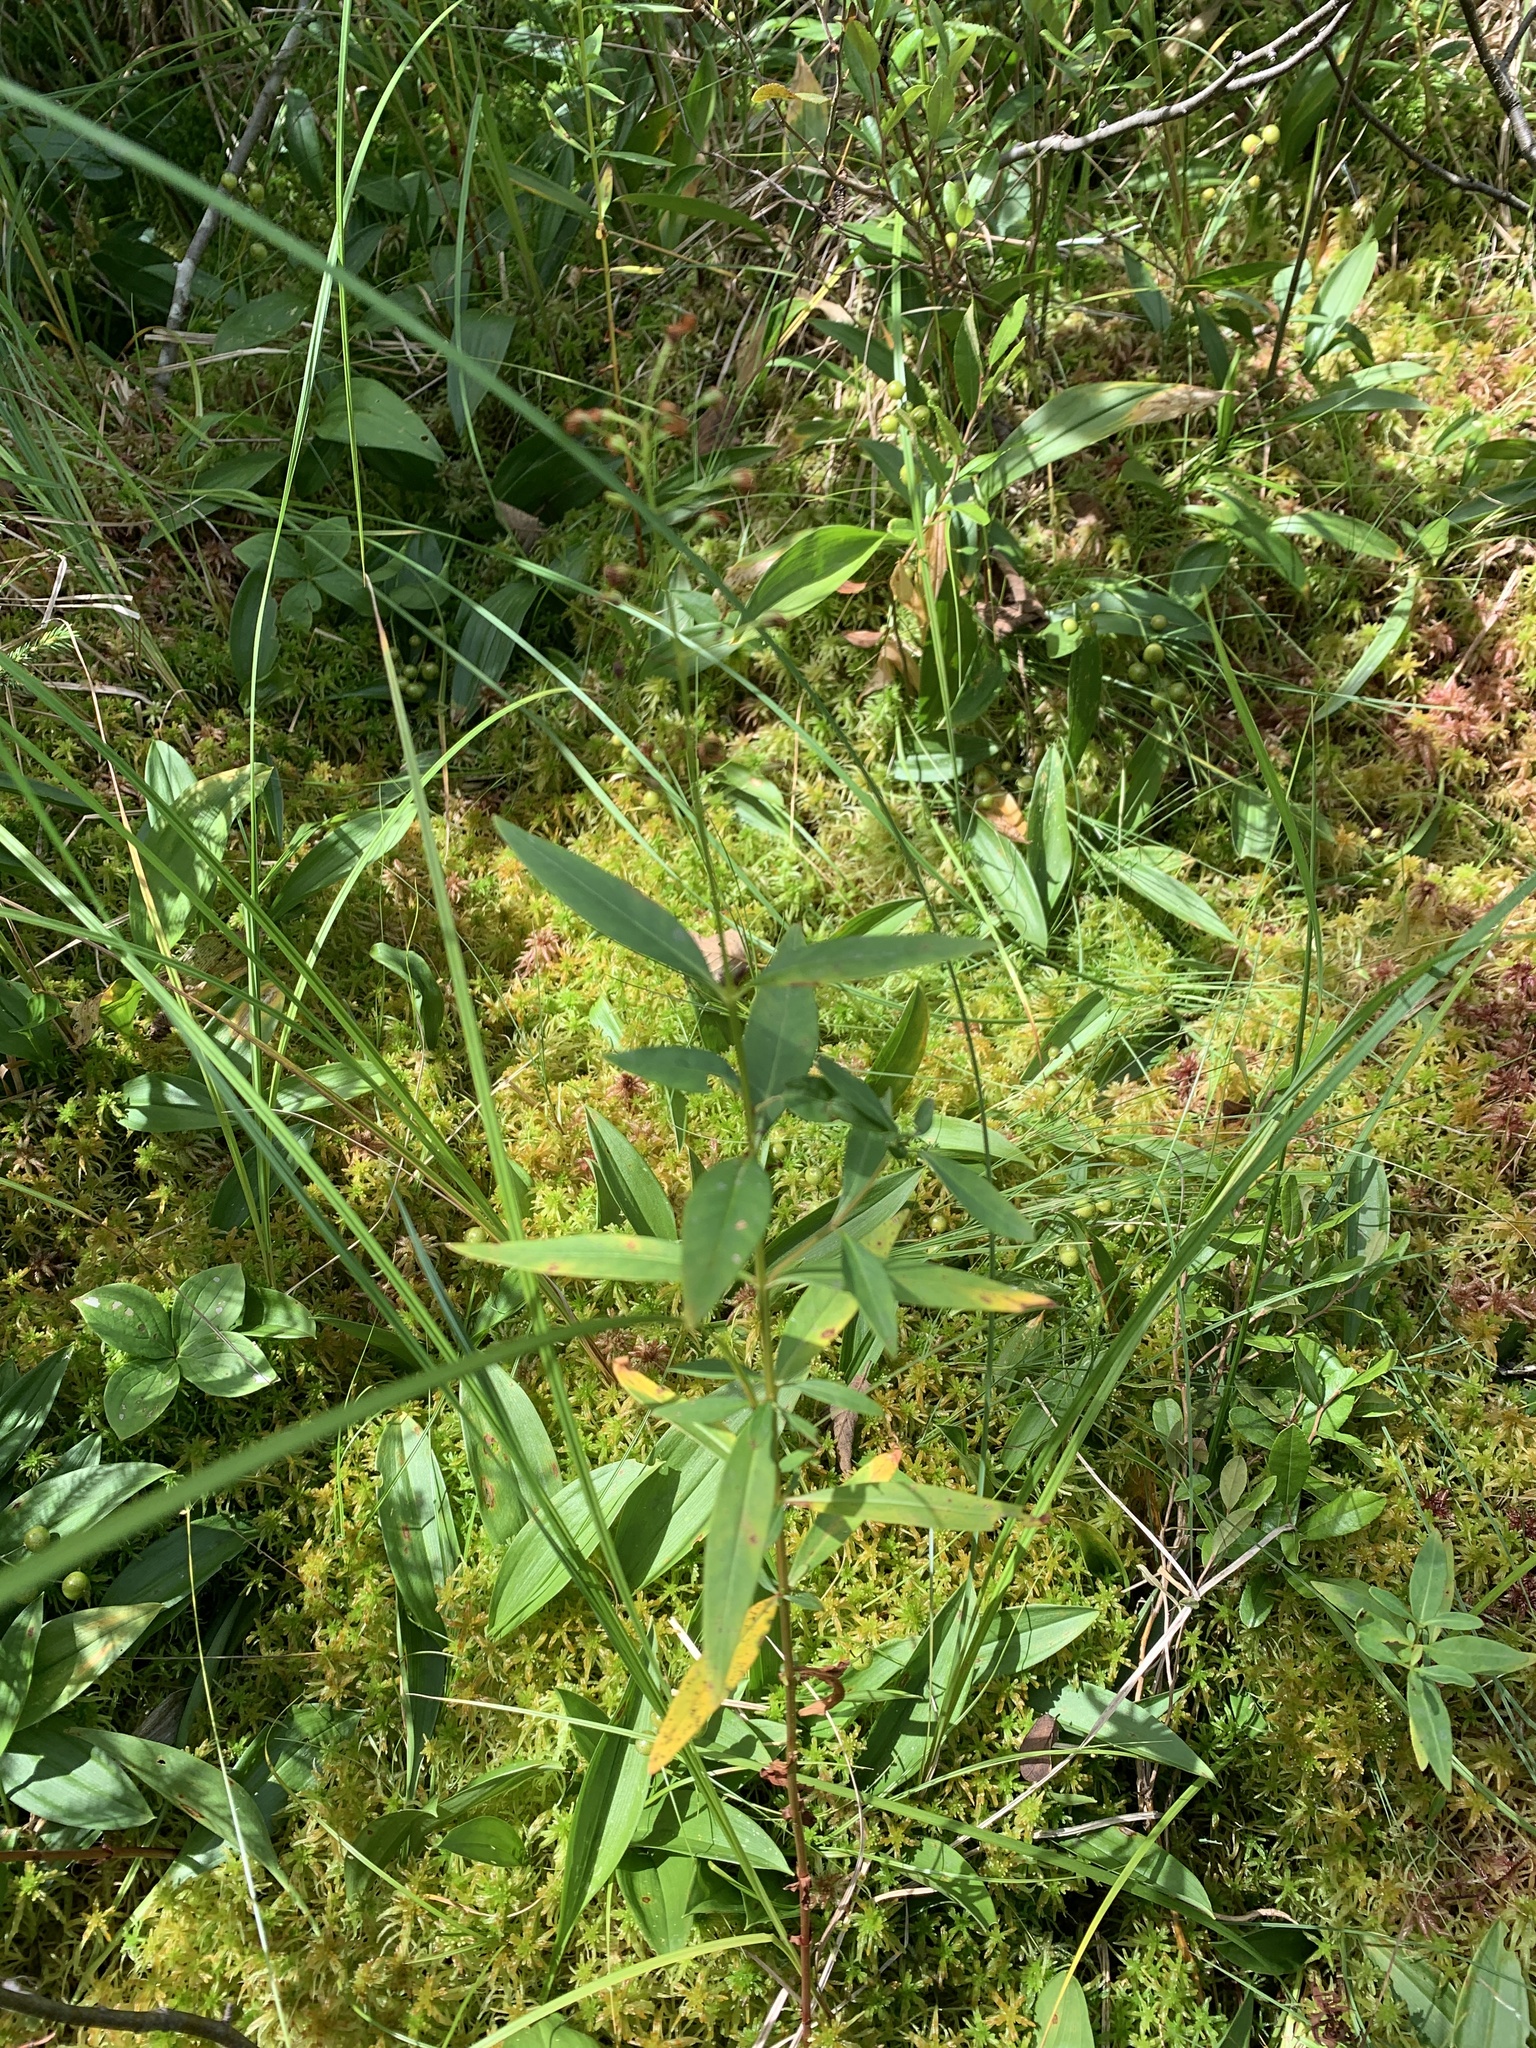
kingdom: Plantae
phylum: Tracheophyta
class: Magnoliopsida
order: Ericales
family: Primulaceae
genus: Lysimachia
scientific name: Lysimachia terrestris
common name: Lake loosestrife
